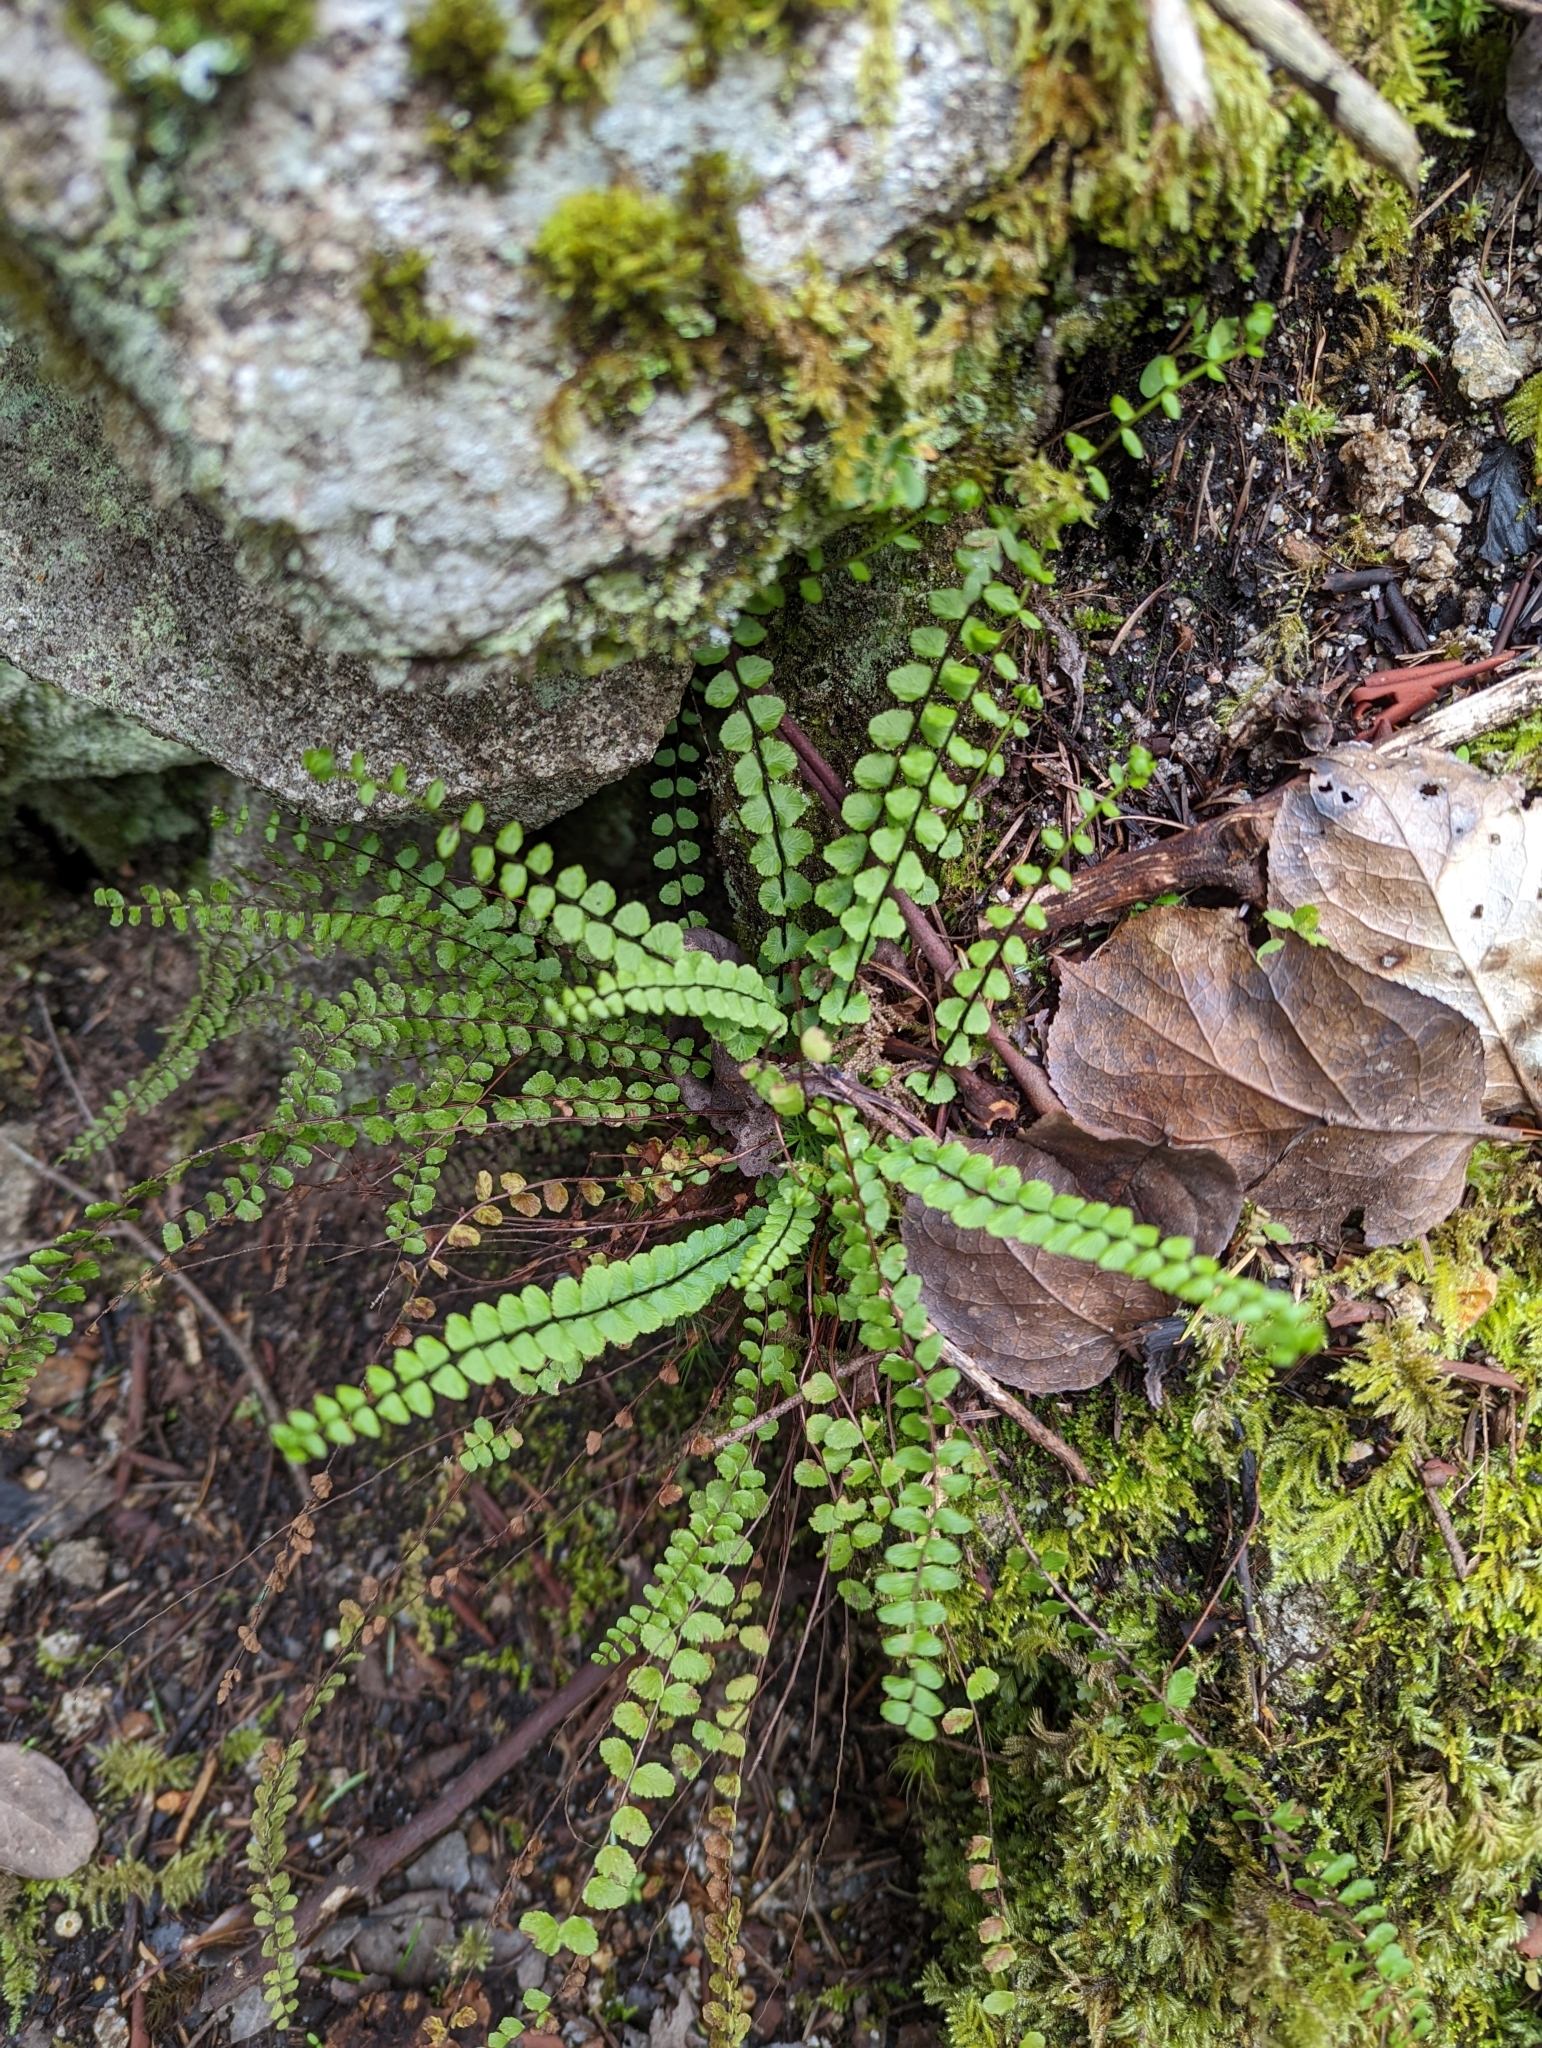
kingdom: Plantae
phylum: Tracheophyta
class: Polypodiopsida
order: Polypodiales
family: Aspleniaceae
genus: Asplenium
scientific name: Asplenium trichomanes
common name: Maidenhair spleenwort
